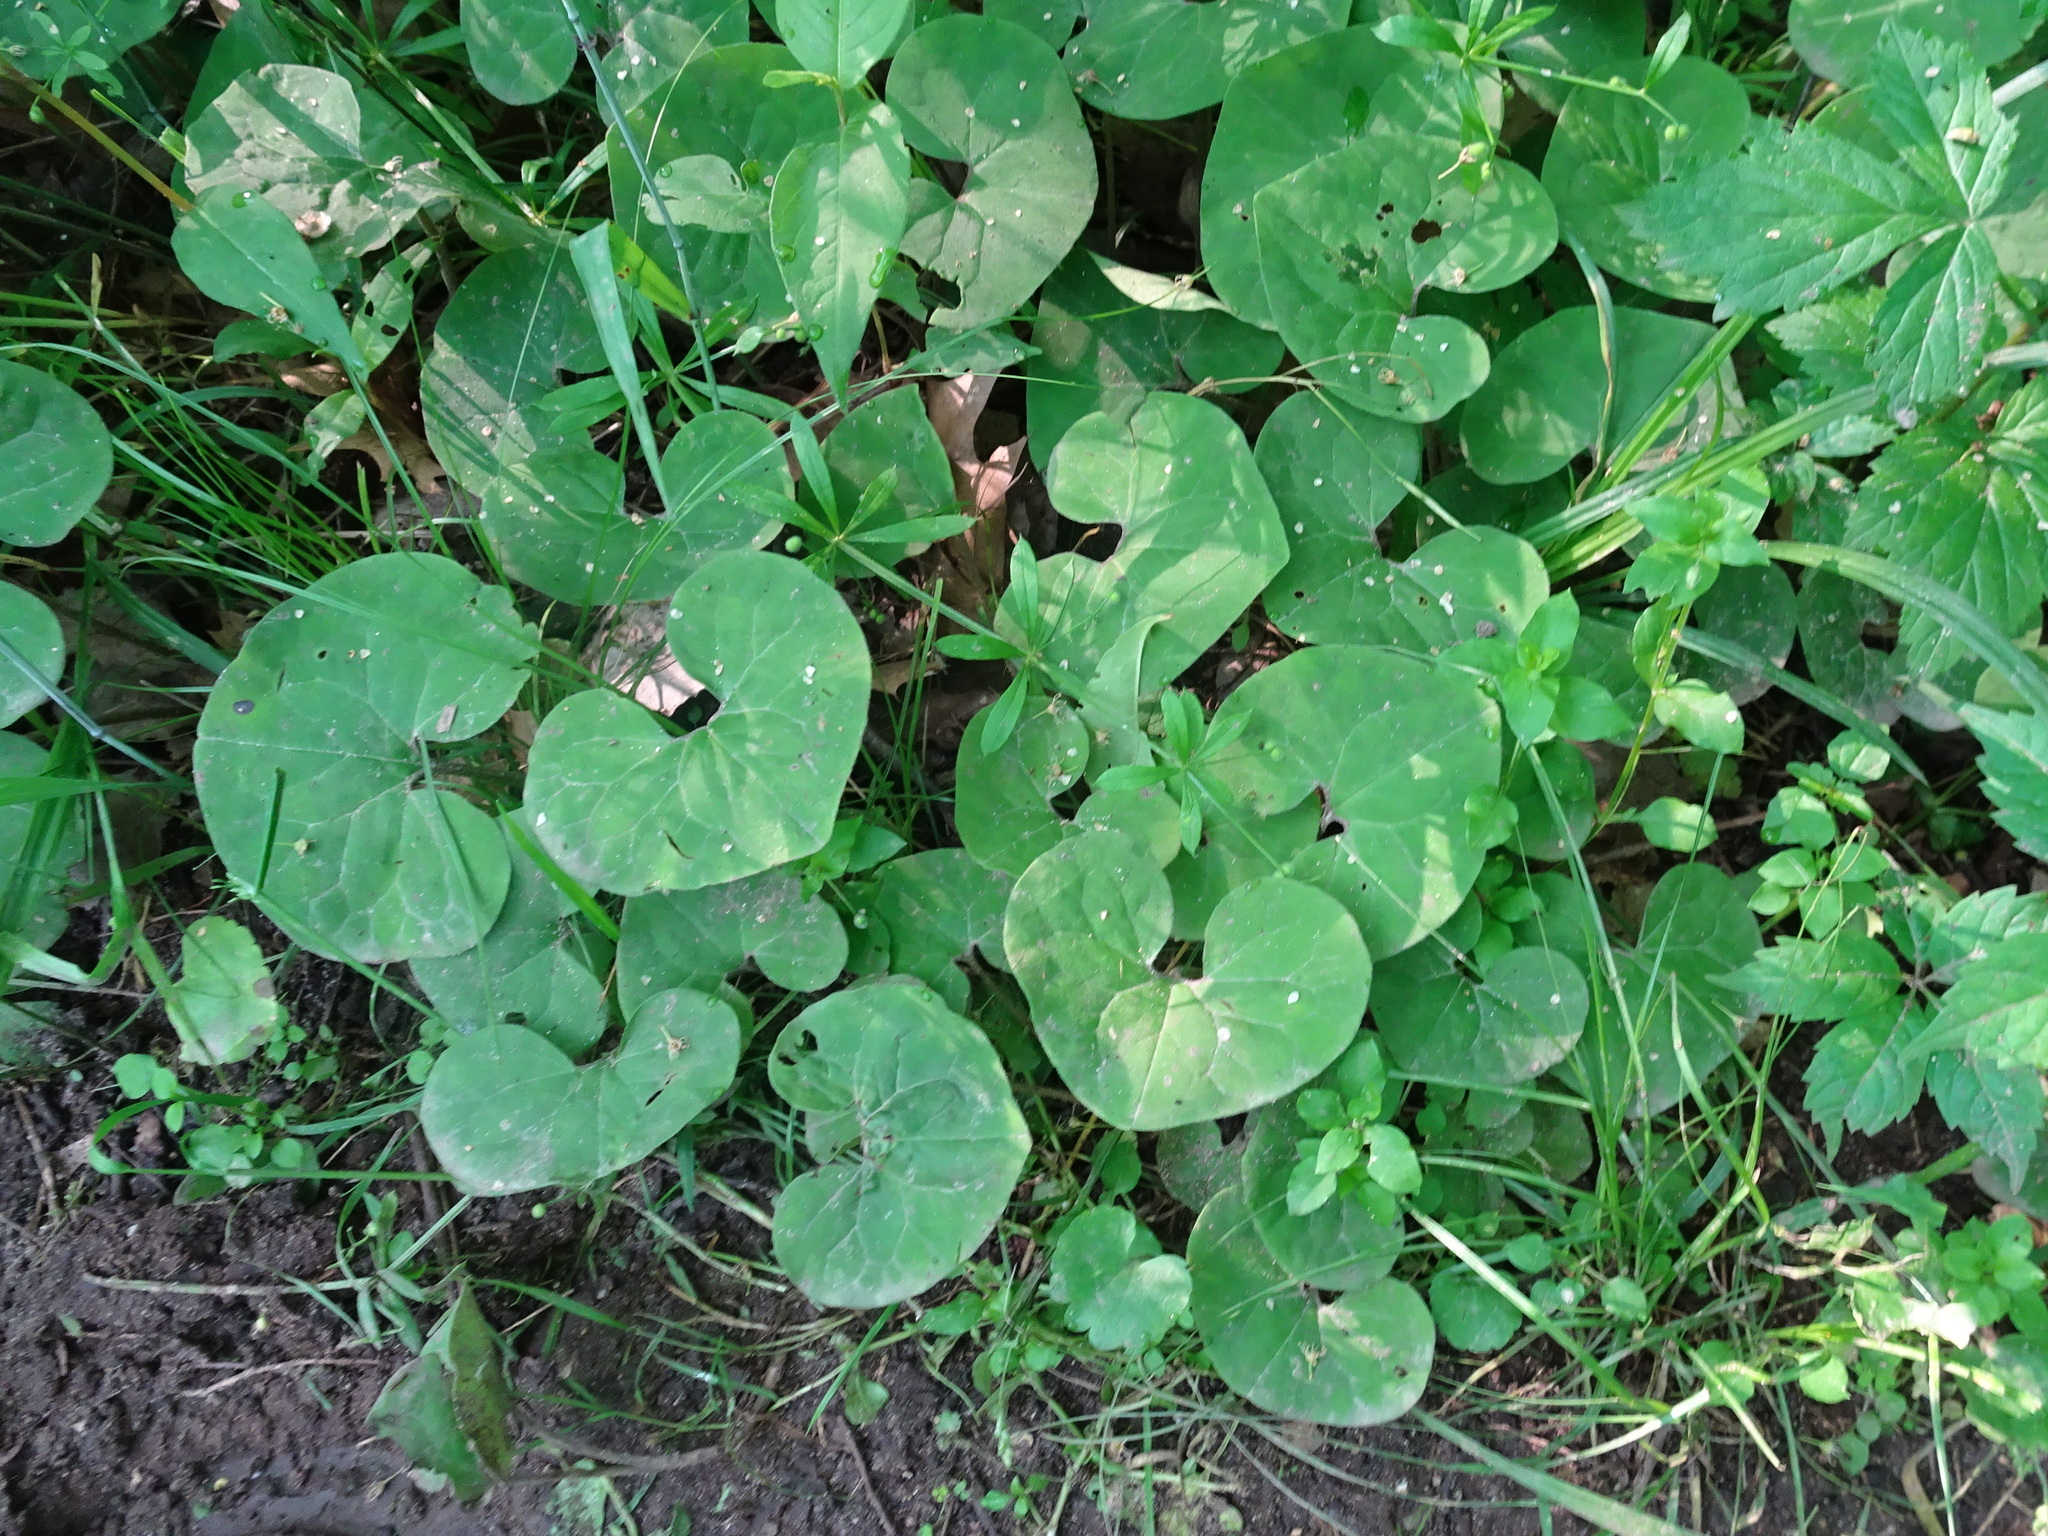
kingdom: Plantae
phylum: Tracheophyta
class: Magnoliopsida
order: Piperales
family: Aristolochiaceae
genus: Asarum
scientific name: Asarum canadense
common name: Wild ginger
